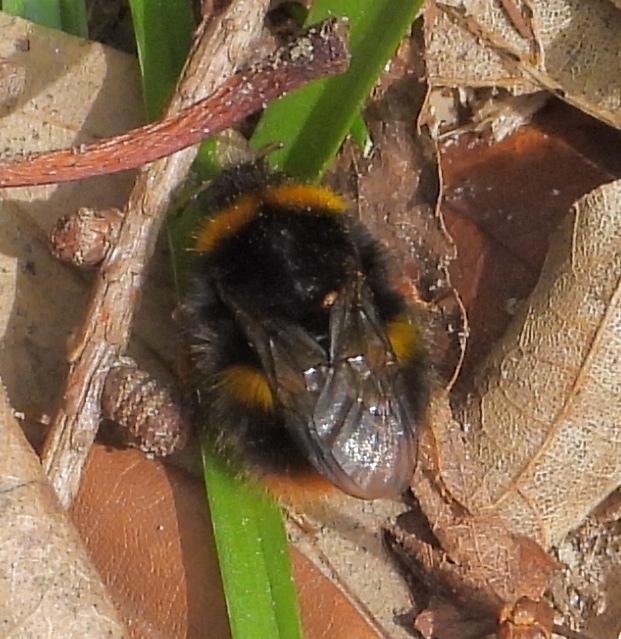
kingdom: Animalia
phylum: Arthropoda
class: Insecta
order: Hymenoptera
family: Apidae
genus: Bombus
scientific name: Bombus terrestris
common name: Buff-tailed bumblebee
